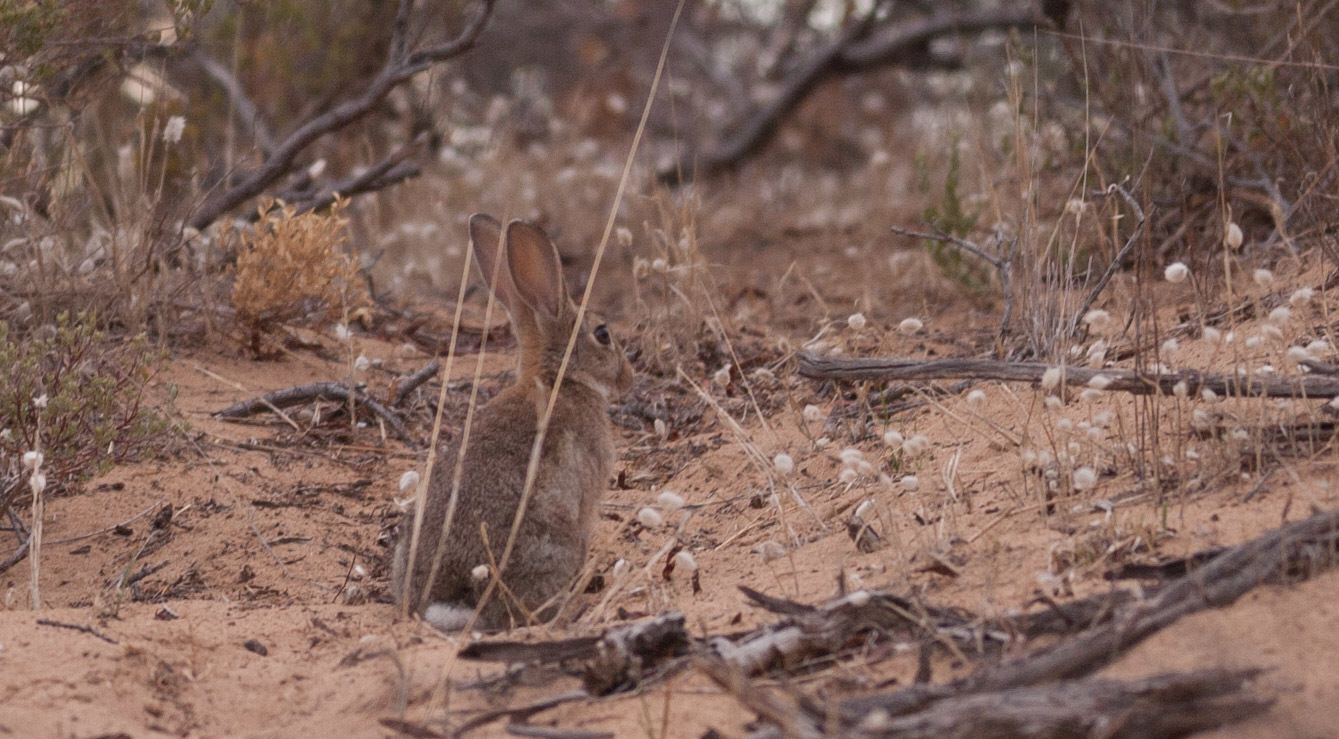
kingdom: Animalia
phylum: Chordata
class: Mammalia
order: Lagomorpha
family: Leporidae
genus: Oryctolagus
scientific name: Oryctolagus cuniculus
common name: European rabbit
